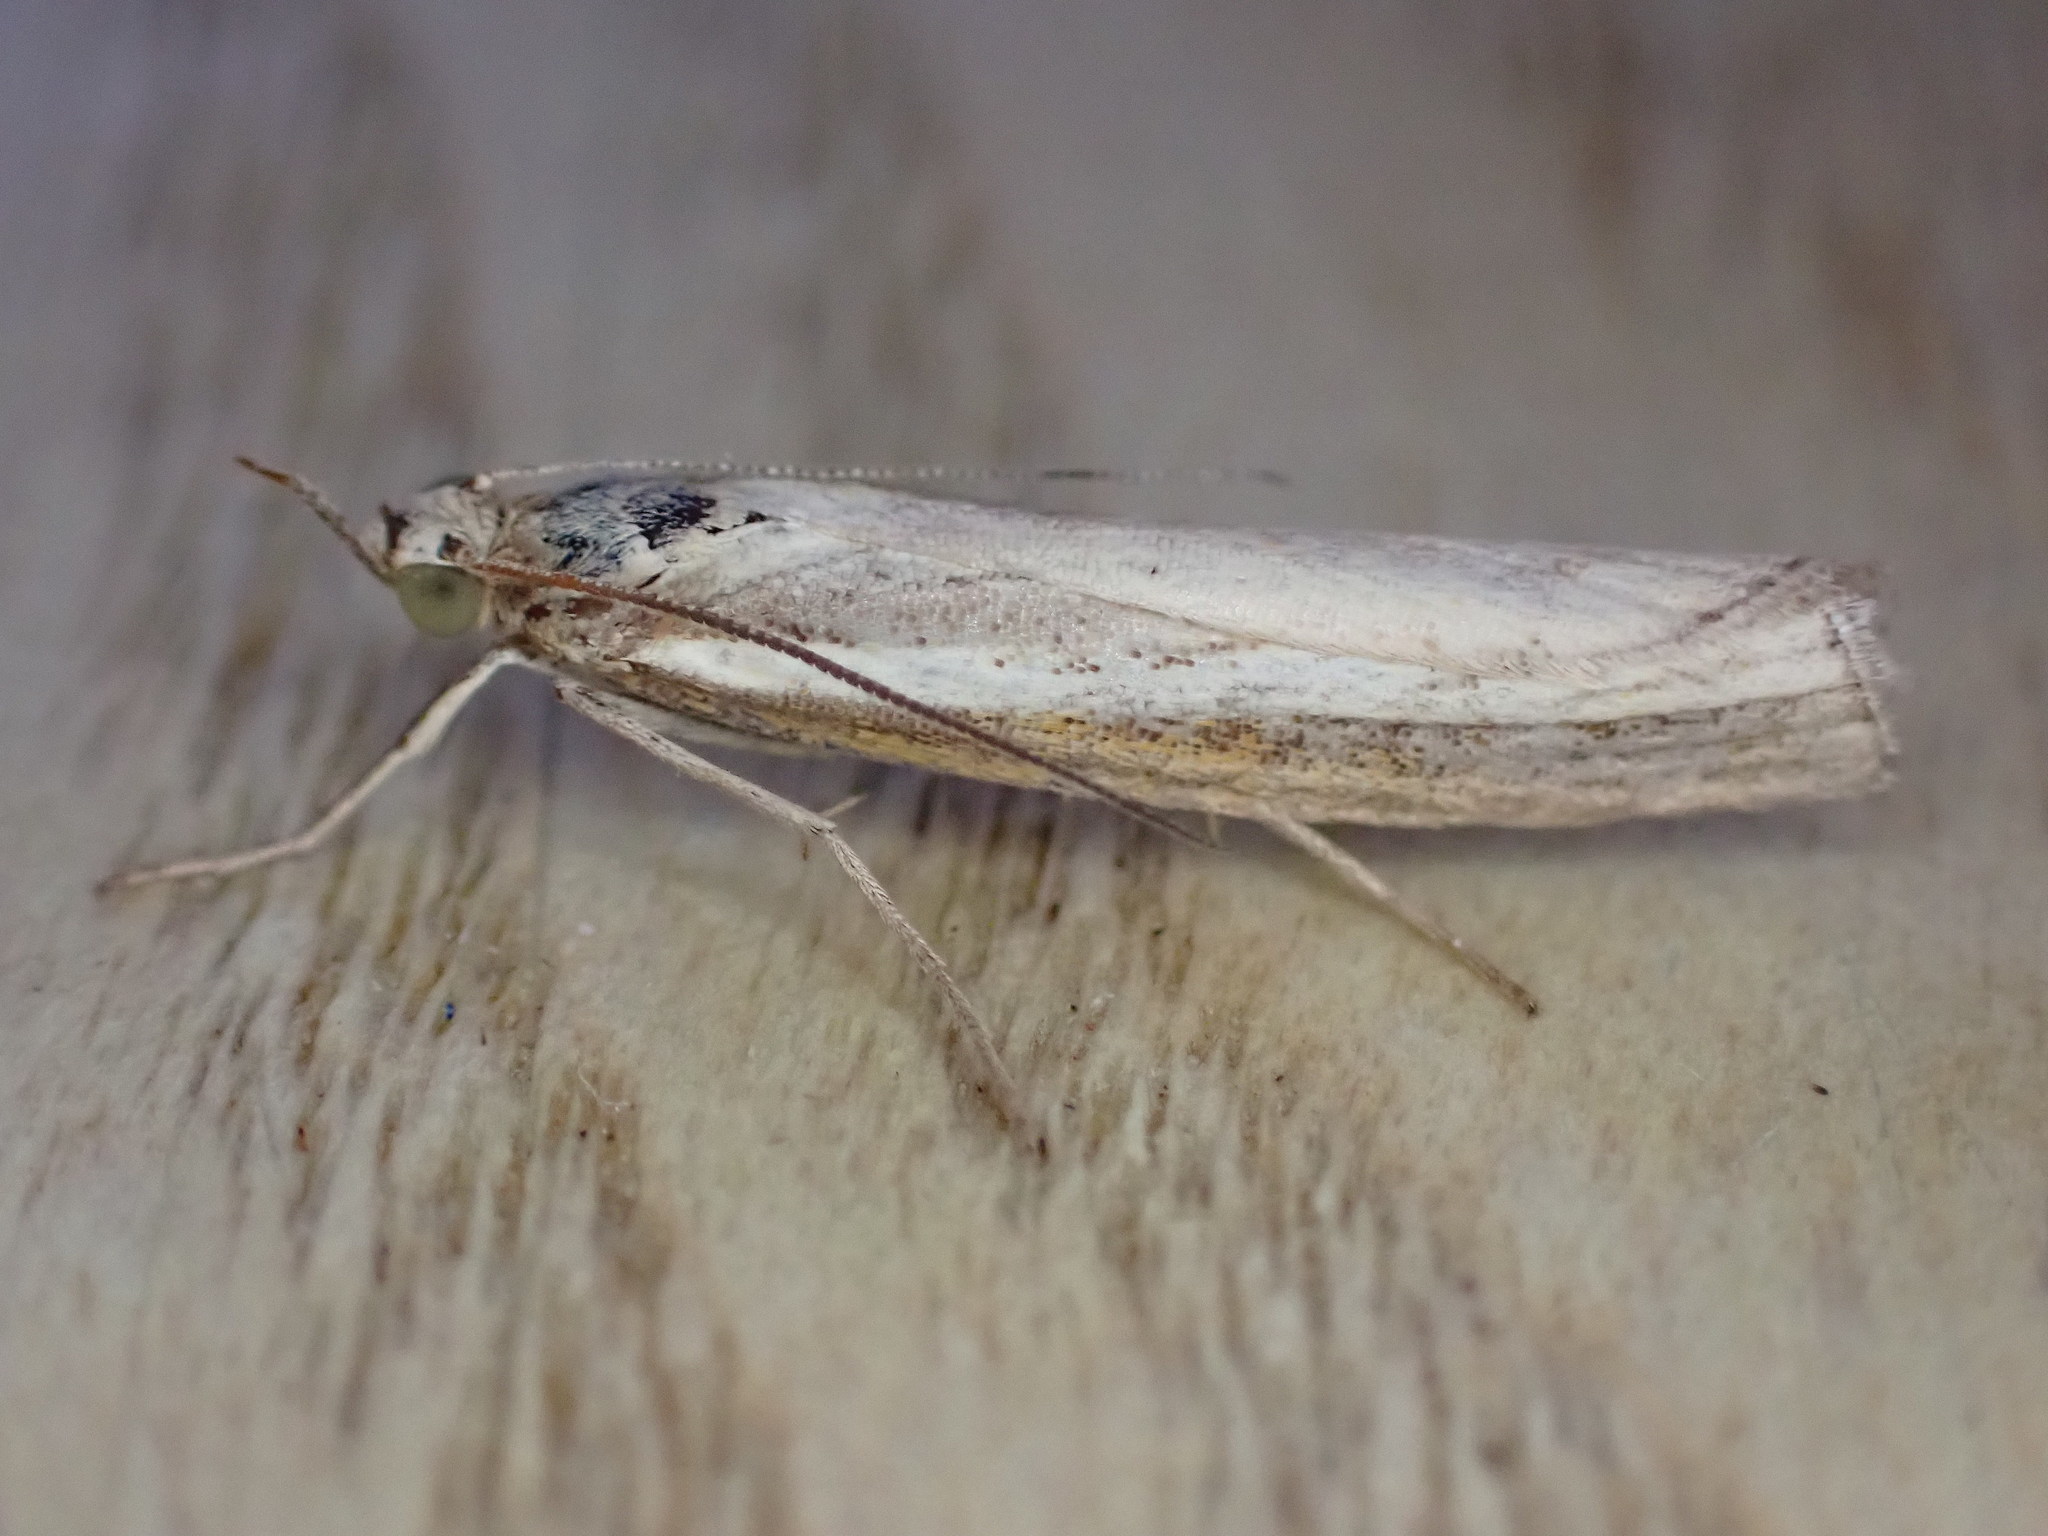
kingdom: Animalia
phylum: Arthropoda
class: Insecta
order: Lepidoptera
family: Crambidae
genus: Agriphila
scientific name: Agriphila tristellus
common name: Common grass-veneer
